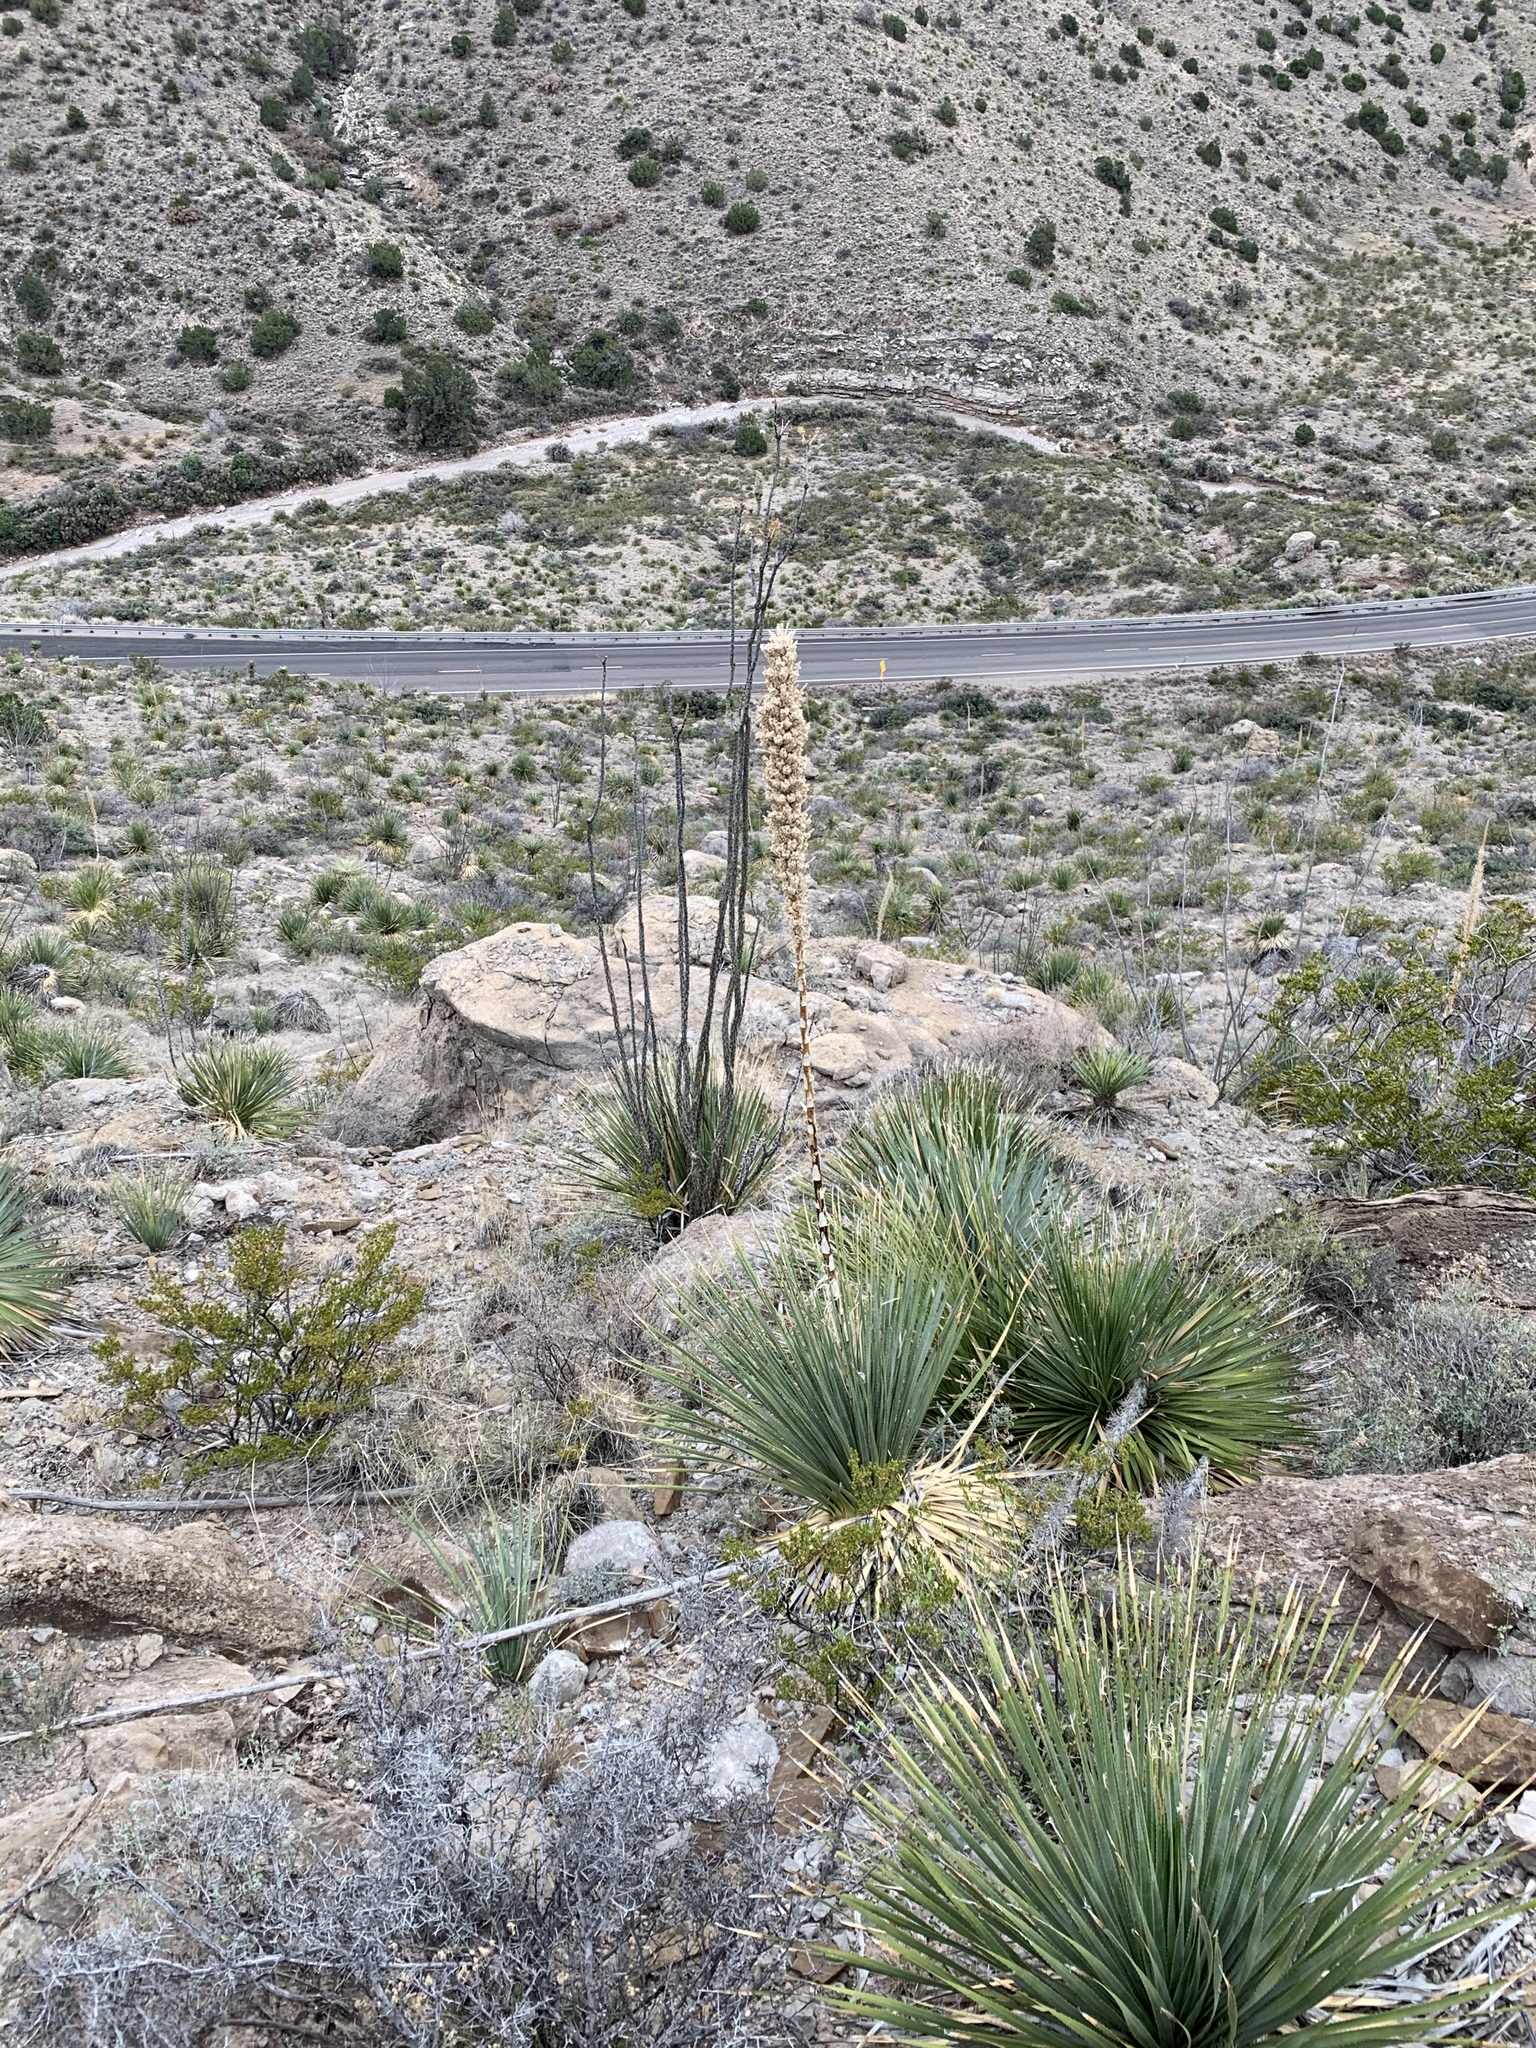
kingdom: Plantae
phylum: Tracheophyta
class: Liliopsida
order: Asparagales
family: Asparagaceae
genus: Dasylirion
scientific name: Dasylirion wheeleri
